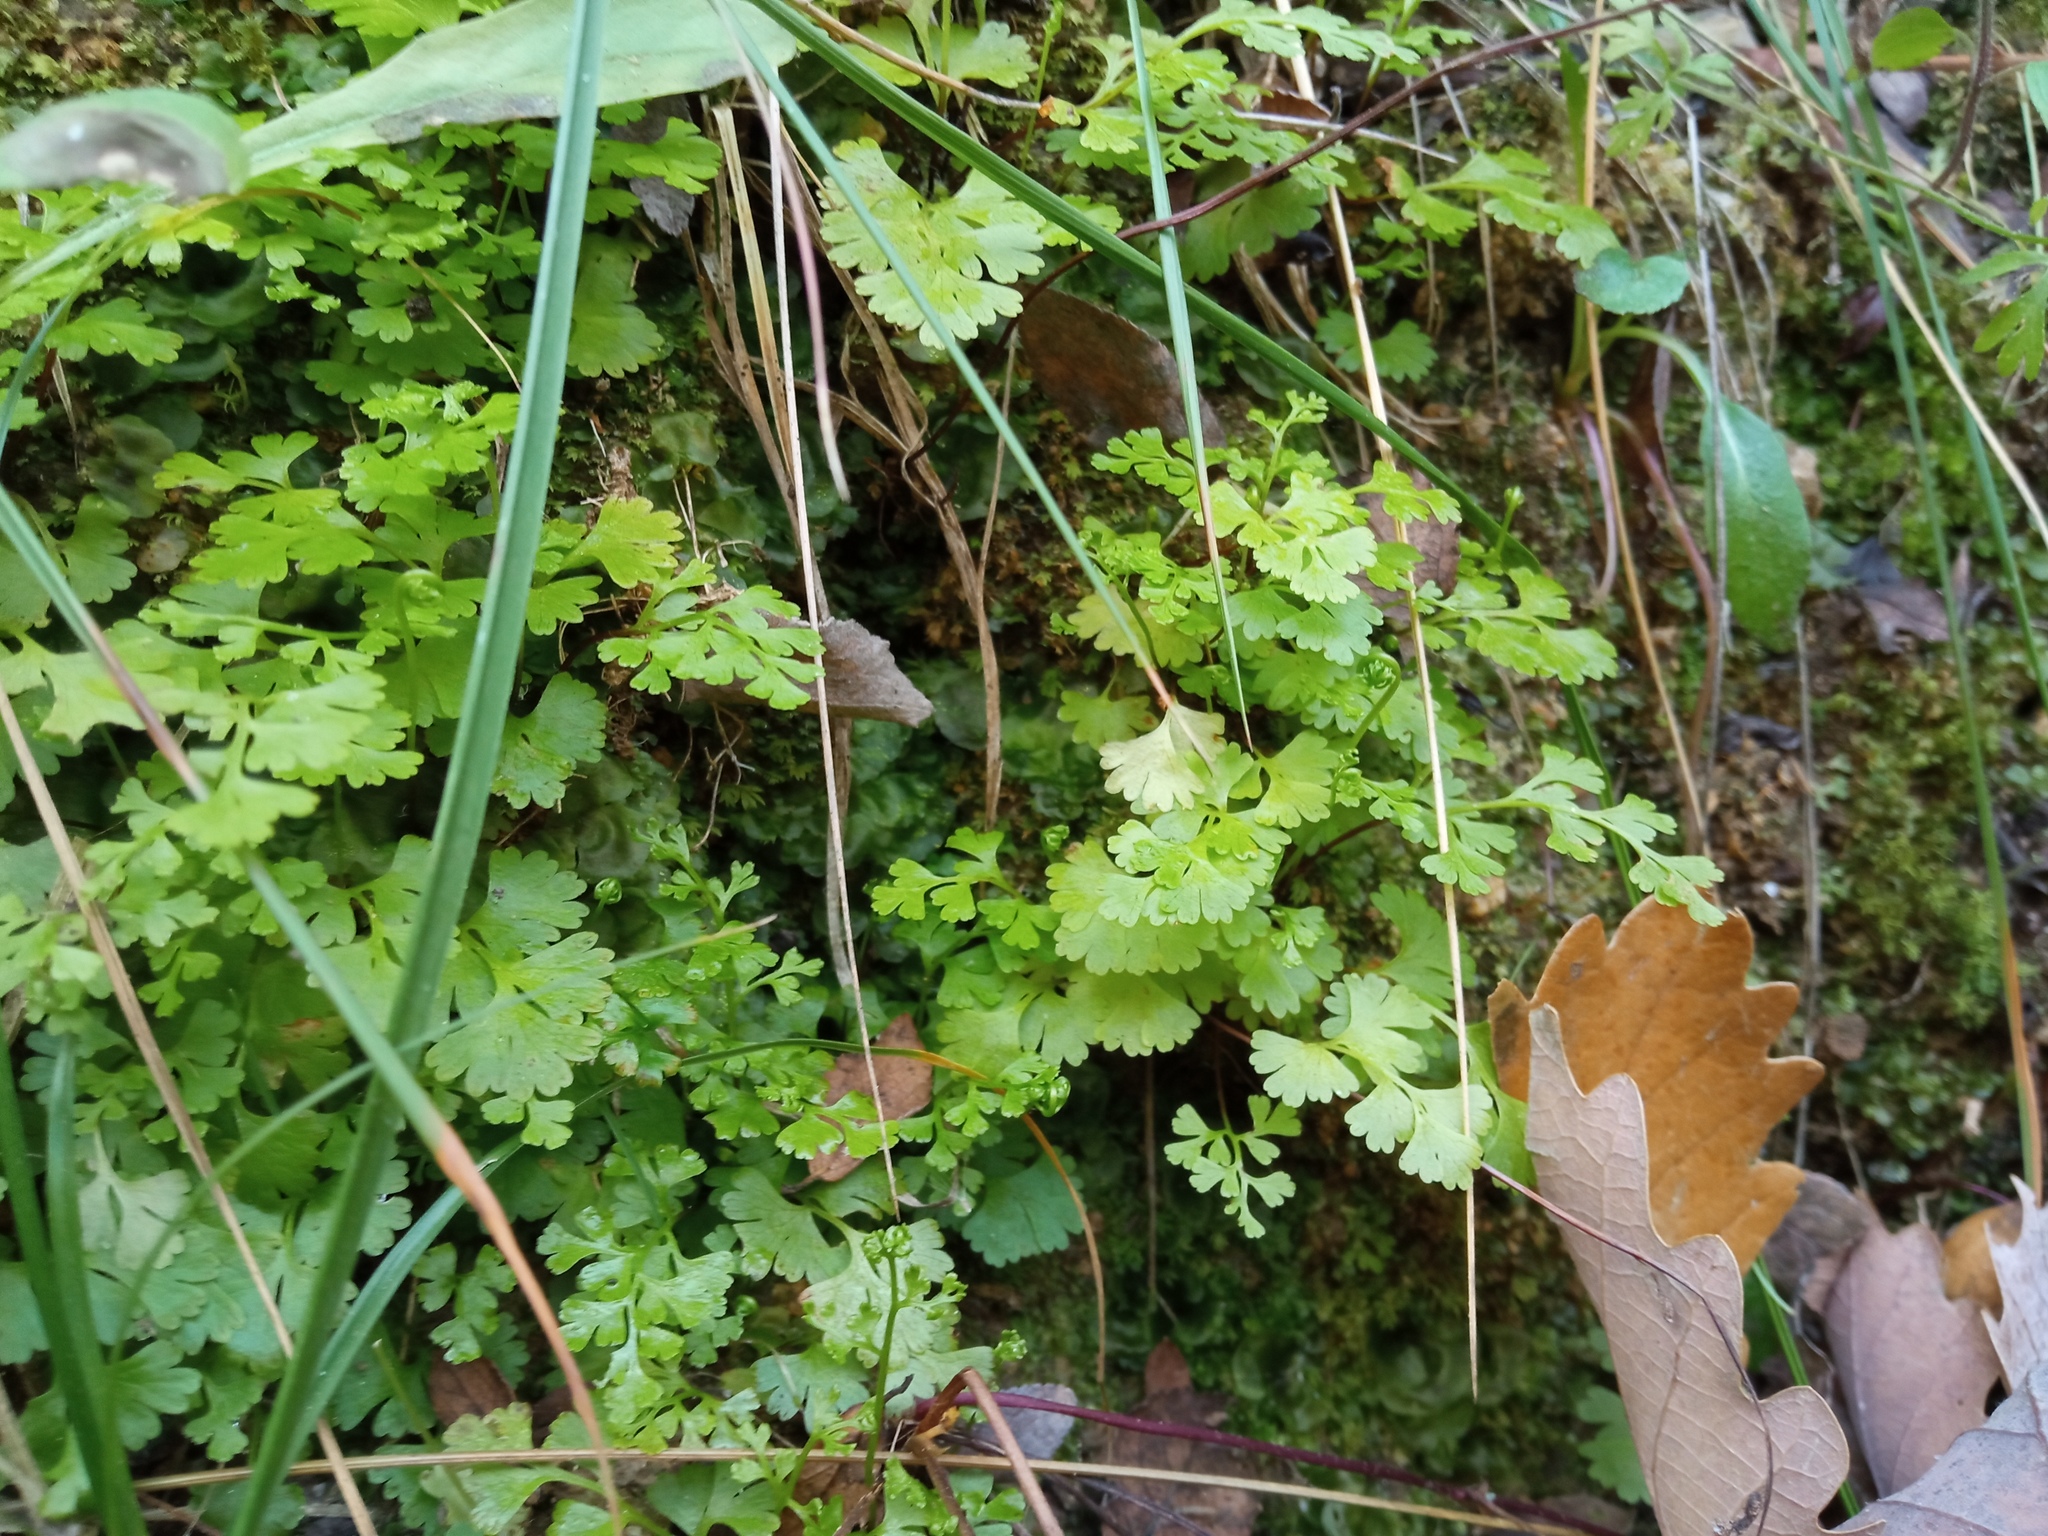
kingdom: Plantae
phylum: Tracheophyta
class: Polypodiopsida
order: Polypodiales
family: Pteridaceae
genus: Anogramma
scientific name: Anogramma leptophylla
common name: Jersey fern
